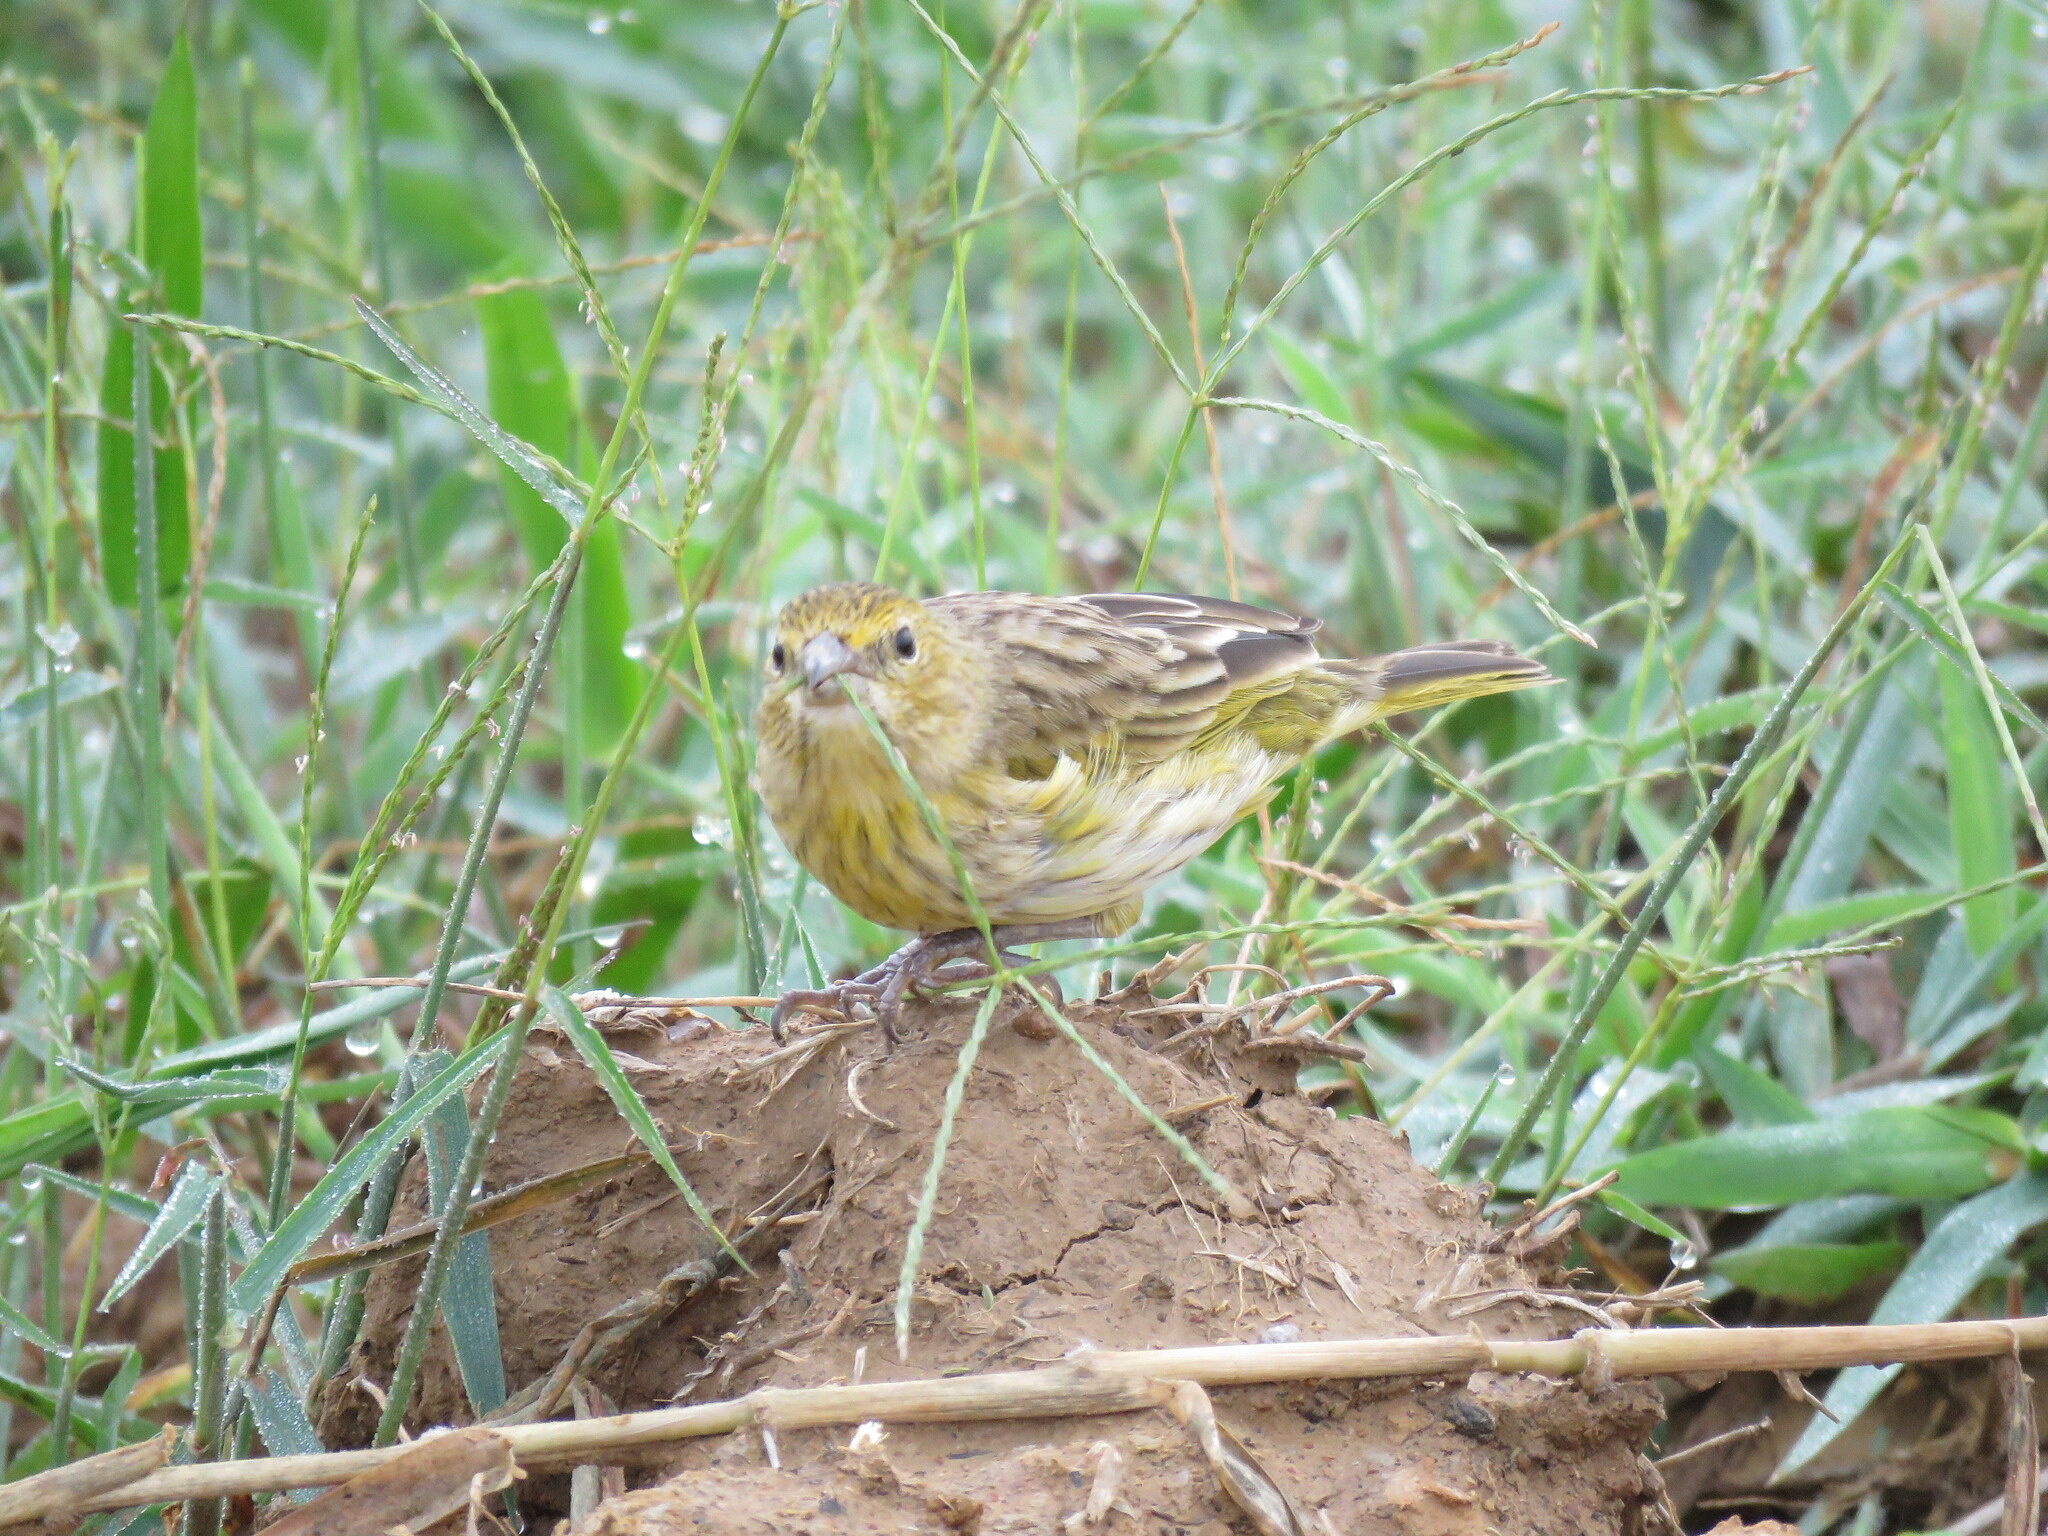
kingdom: Animalia
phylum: Chordata
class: Aves
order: Passeriformes
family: Thraupidae
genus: Sicalis
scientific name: Sicalis flaveola
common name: Saffron finch
